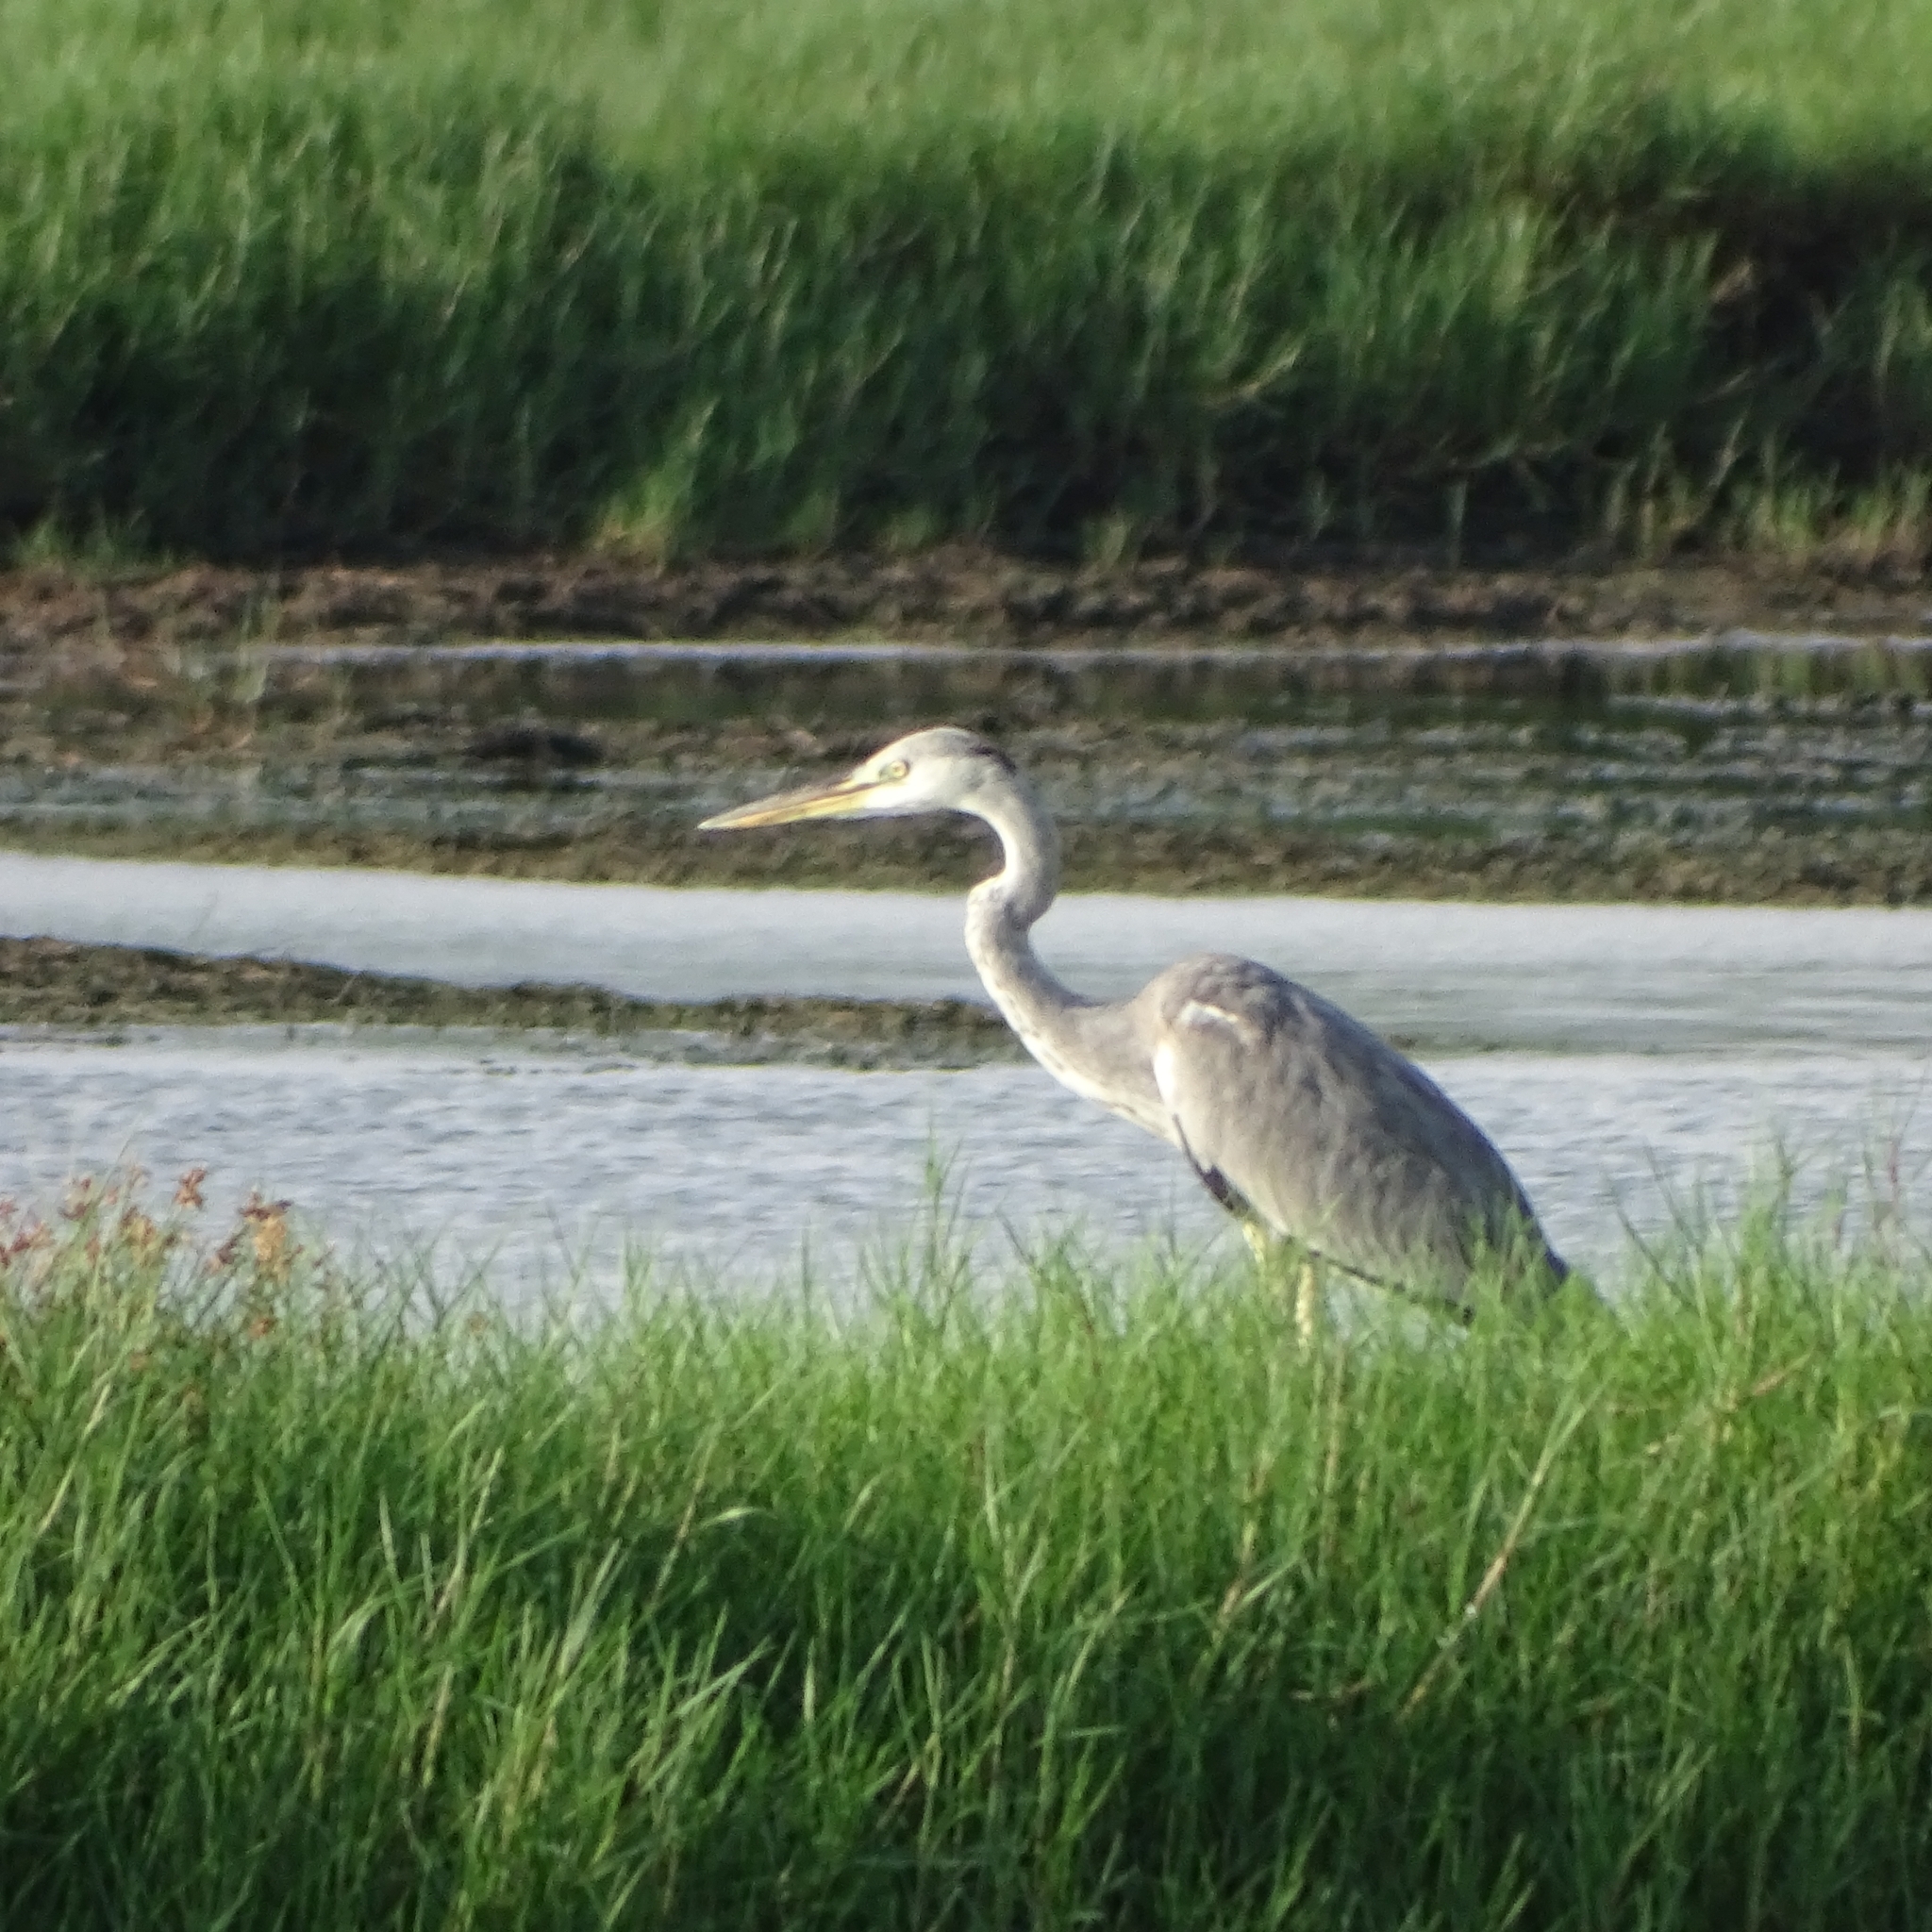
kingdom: Animalia
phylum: Chordata
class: Aves
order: Pelecaniformes
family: Ardeidae
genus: Ardea
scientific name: Ardea cinerea
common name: Grey heron
